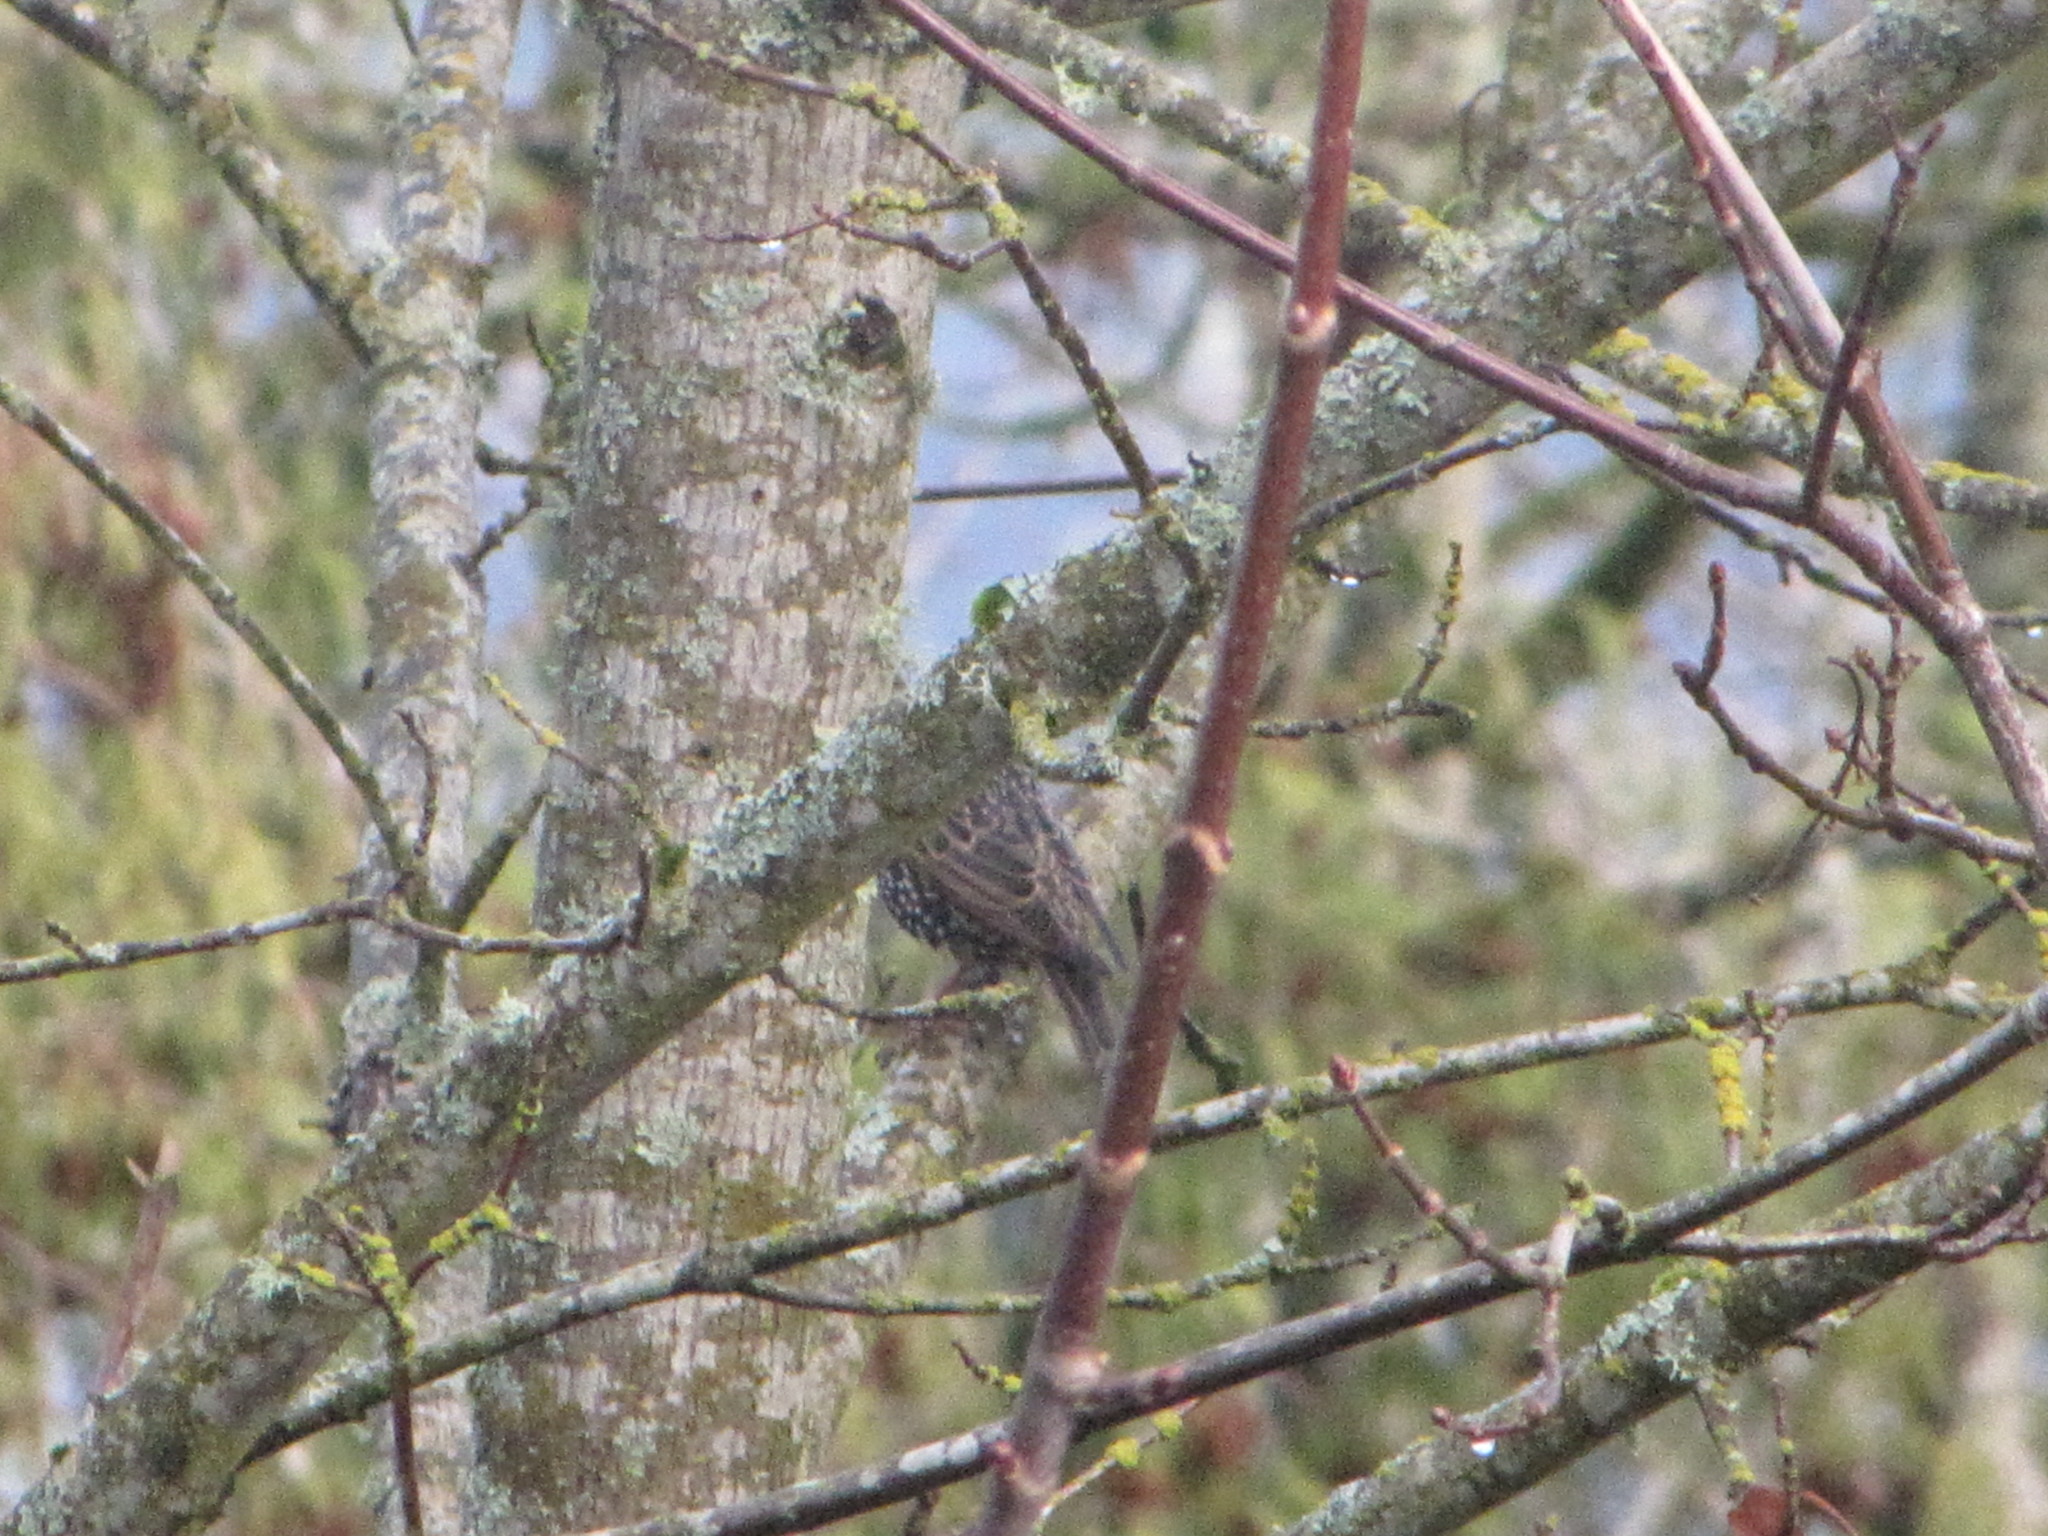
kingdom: Animalia
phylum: Chordata
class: Aves
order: Passeriformes
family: Sturnidae
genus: Sturnus
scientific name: Sturnus vulgaris
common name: Common starling
